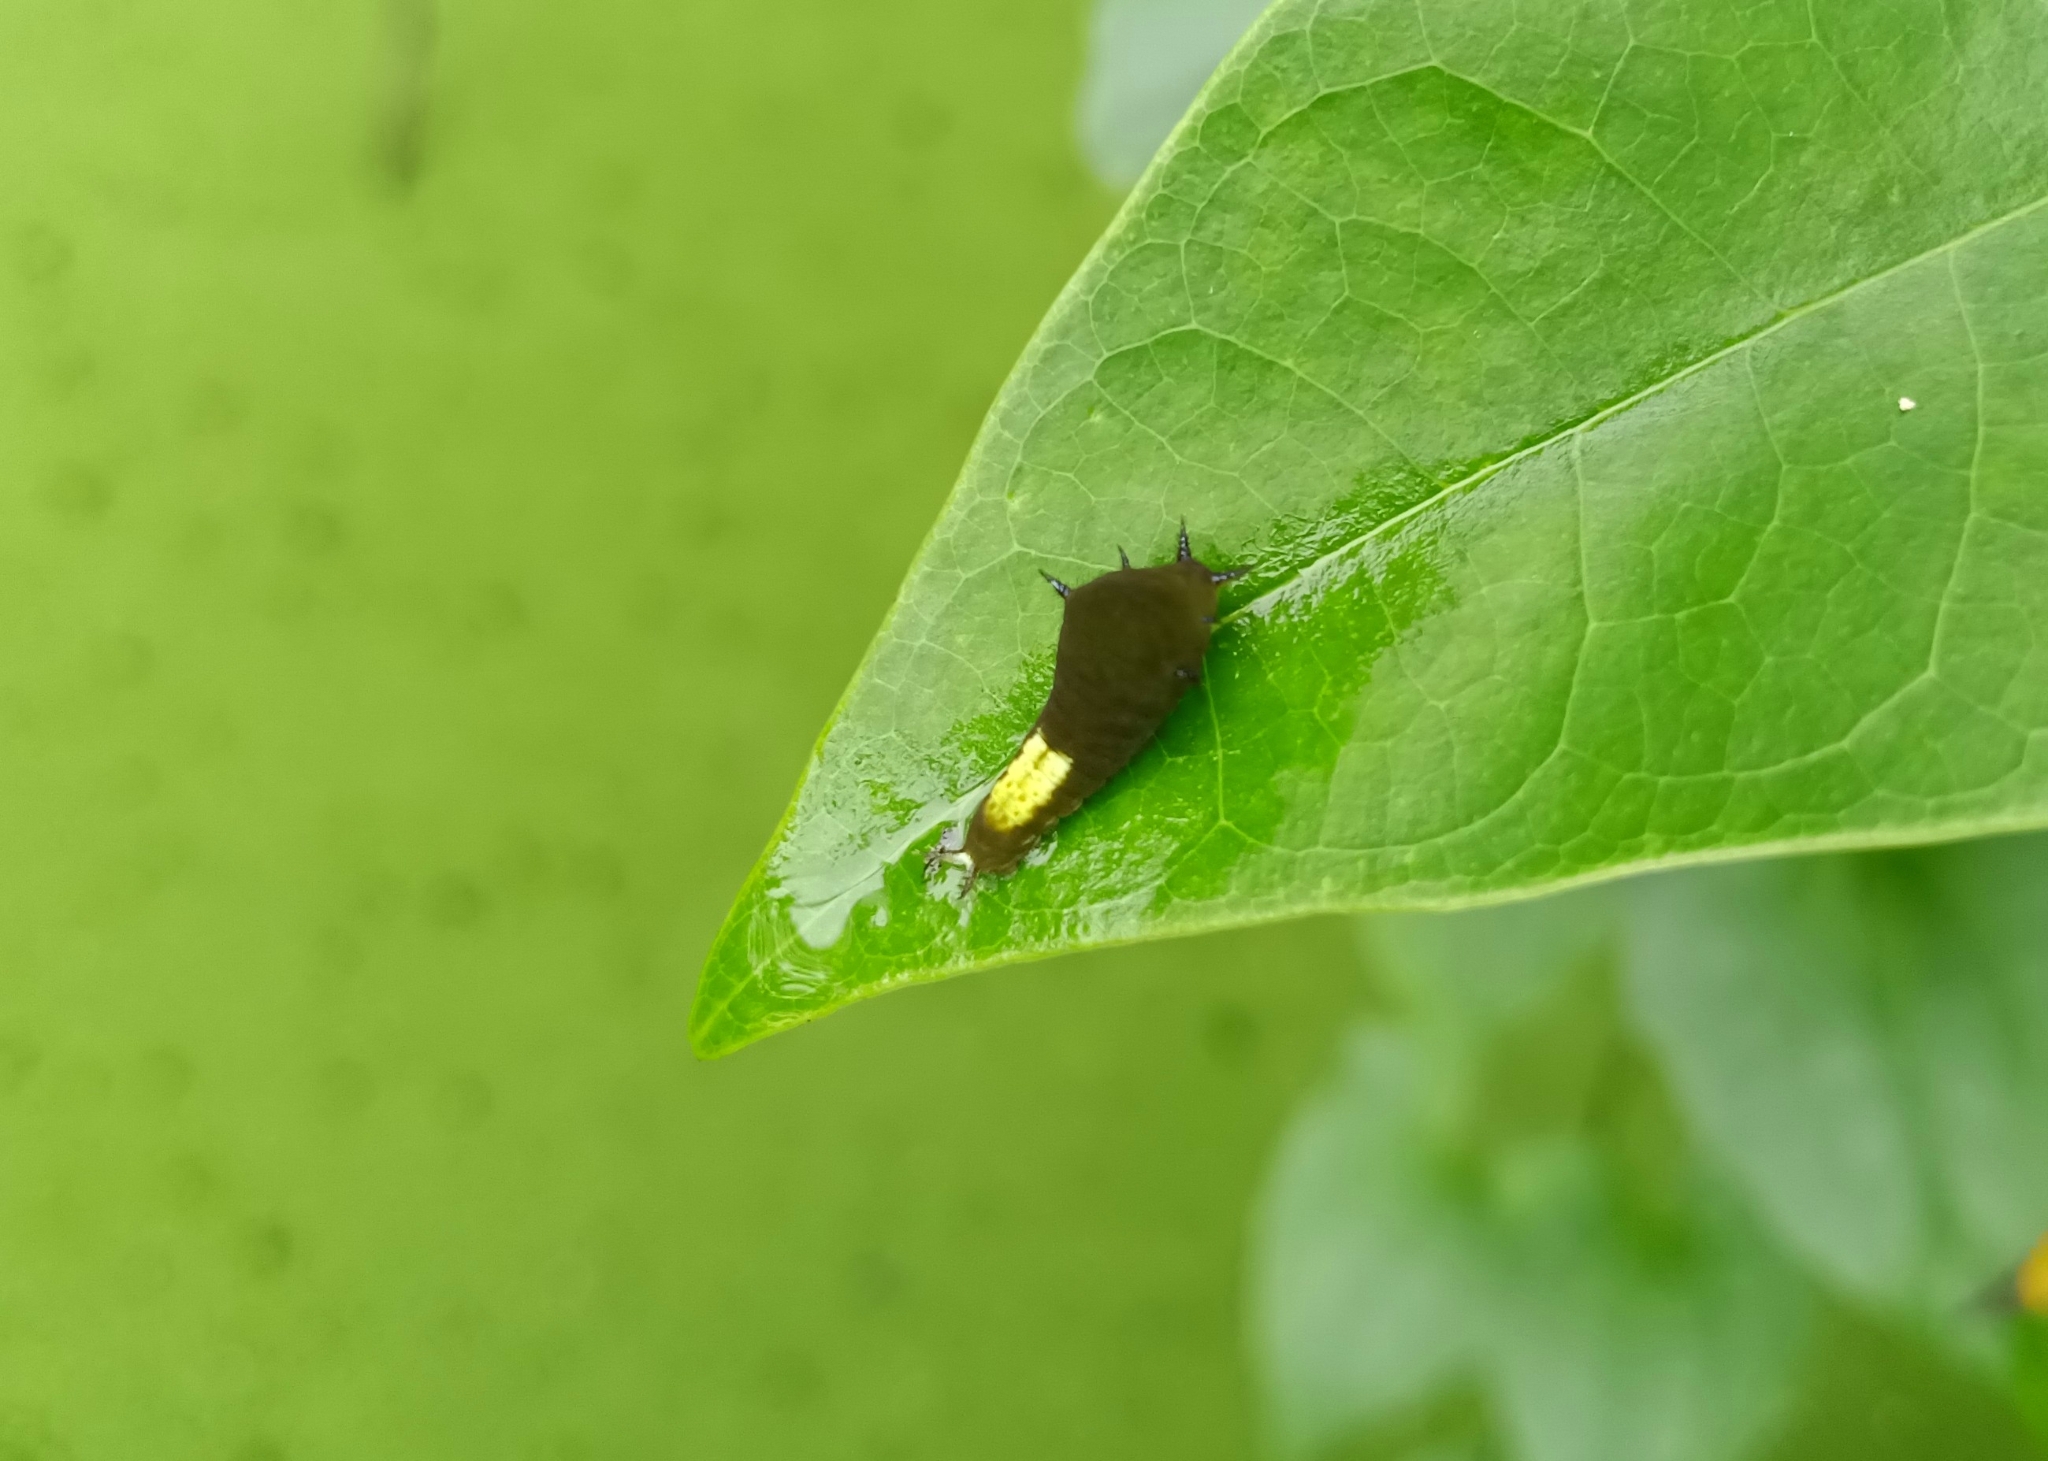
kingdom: Animalia
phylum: Arthropoda
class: Insecta
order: Lepidoptera
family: Papilionidae
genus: Graphium
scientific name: Graphium agamemnon
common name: Tailed jay
